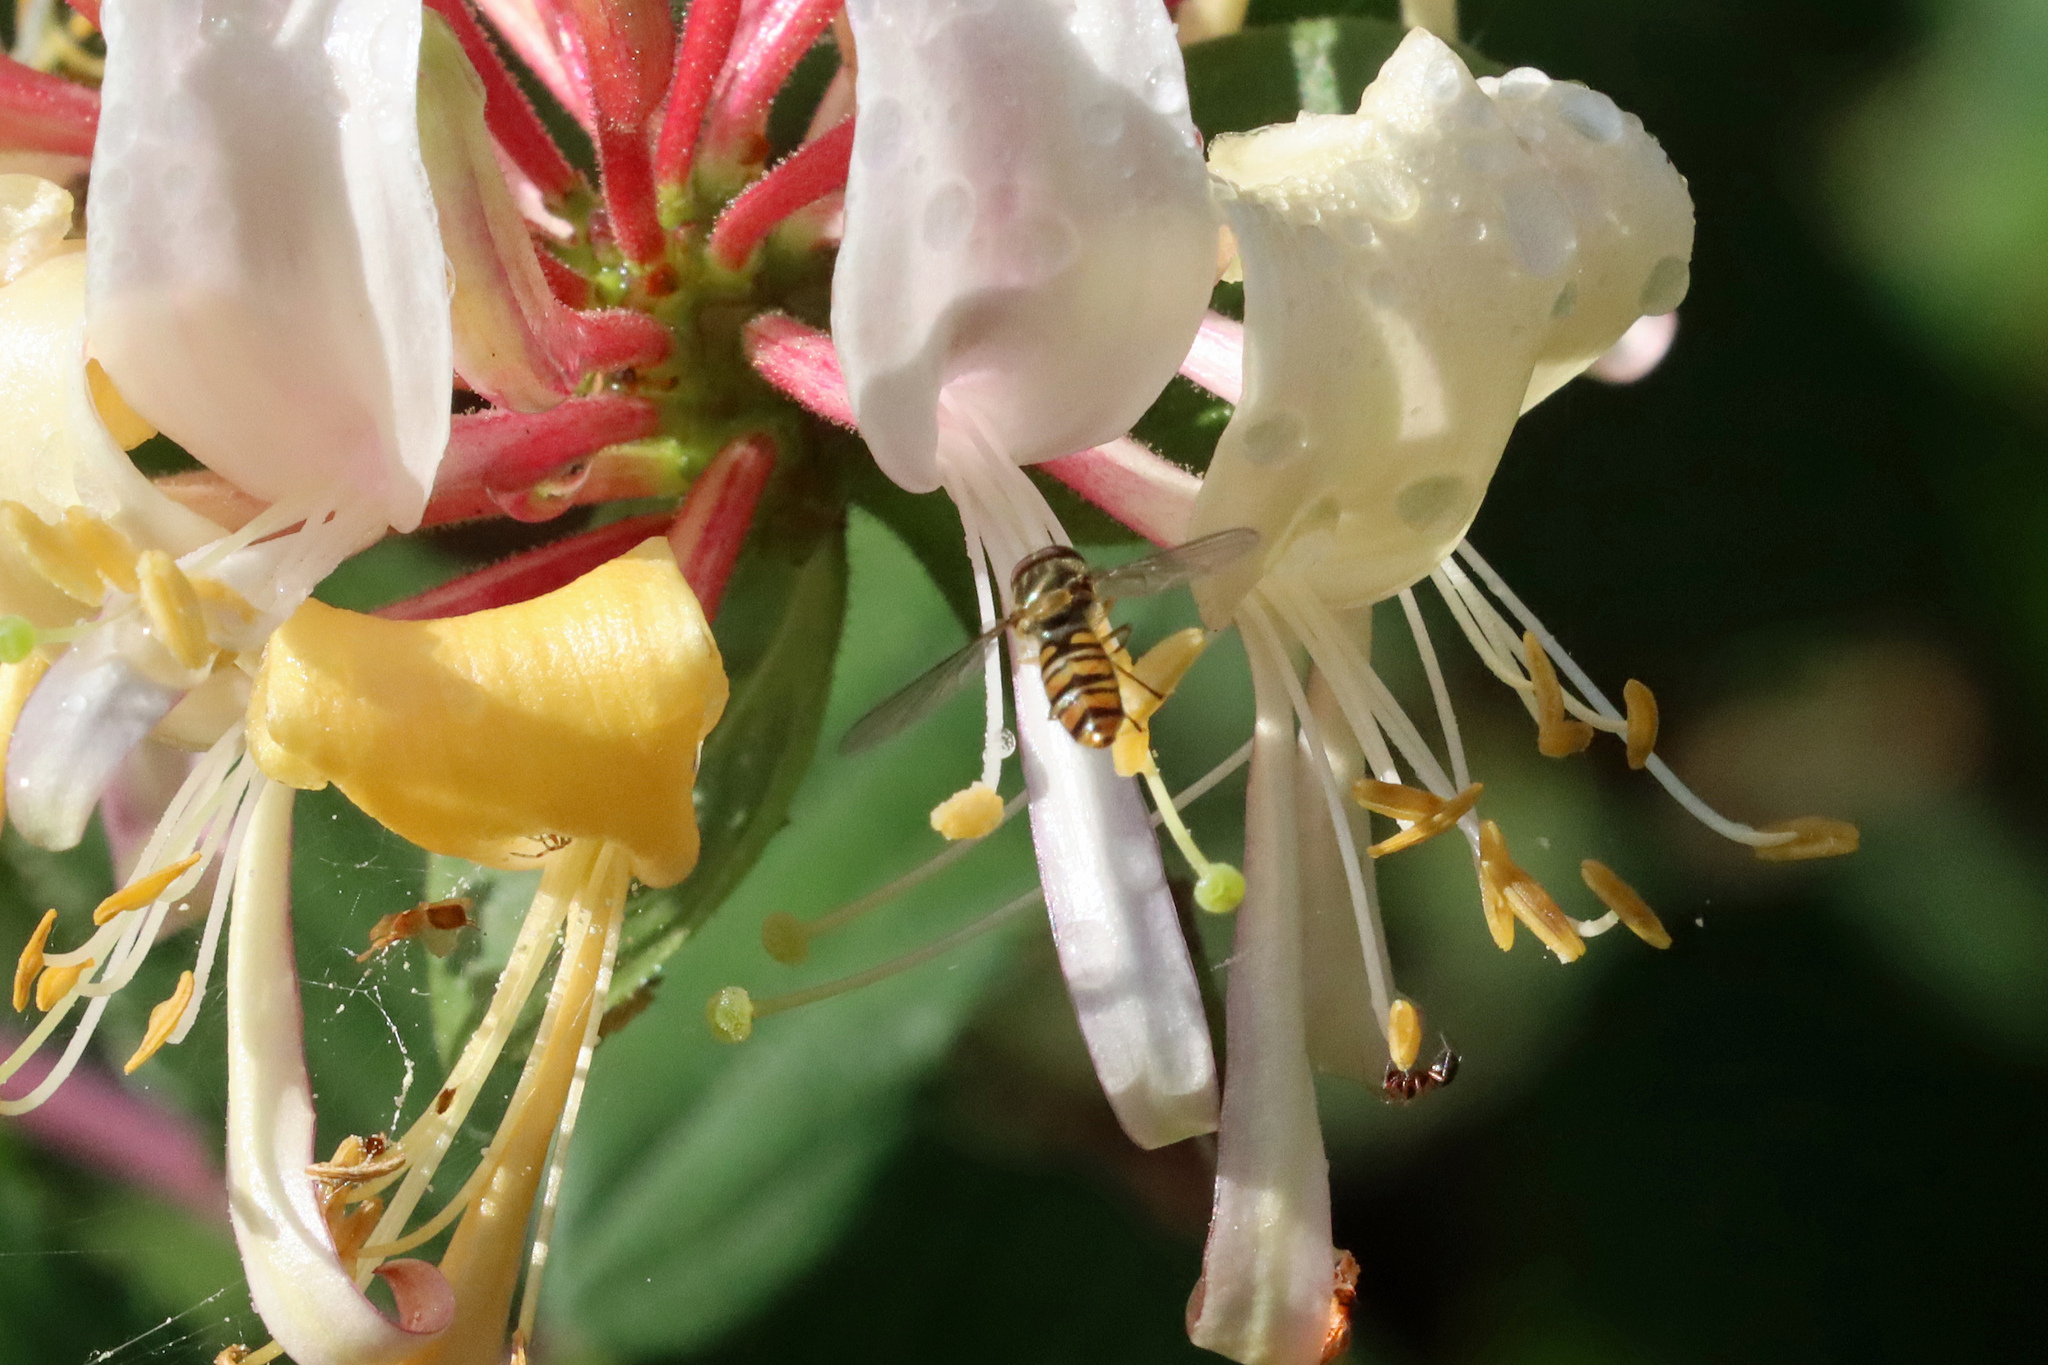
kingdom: Animalia
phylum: Arthropoda
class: Insecta
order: Diptera
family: Syrphidae
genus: Episyrphus
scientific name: Episyrphus balteatus
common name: Marmalade hoverfly
